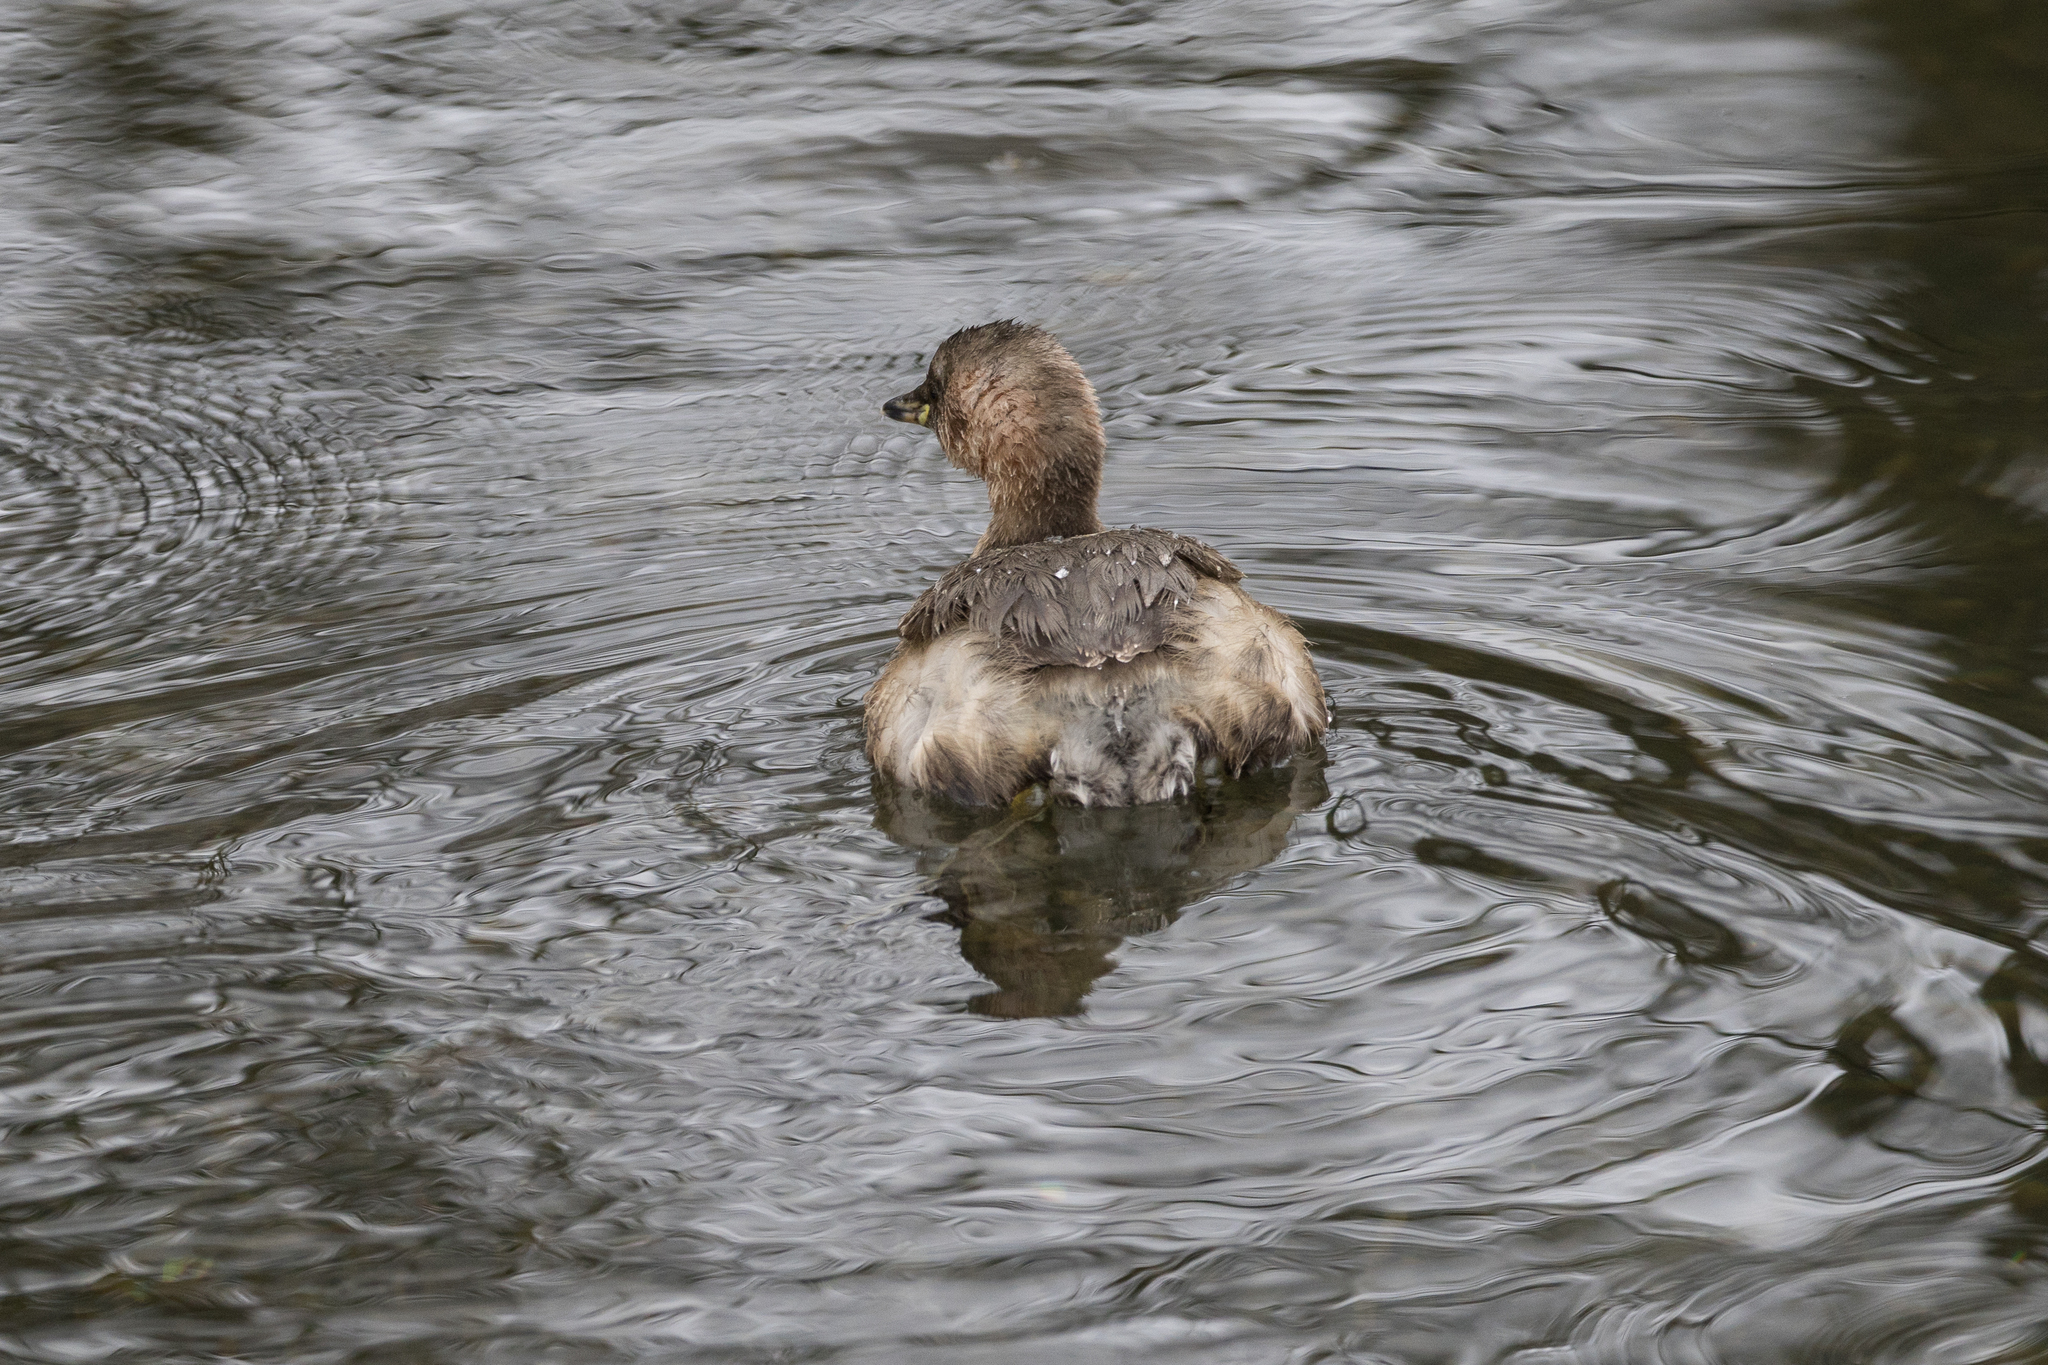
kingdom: Animalia
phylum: Chordata
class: Aves
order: Podicipediformes
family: Podicipedidae
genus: Tachybaptus
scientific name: Tachybaptus ruficollis
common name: Little grebe
